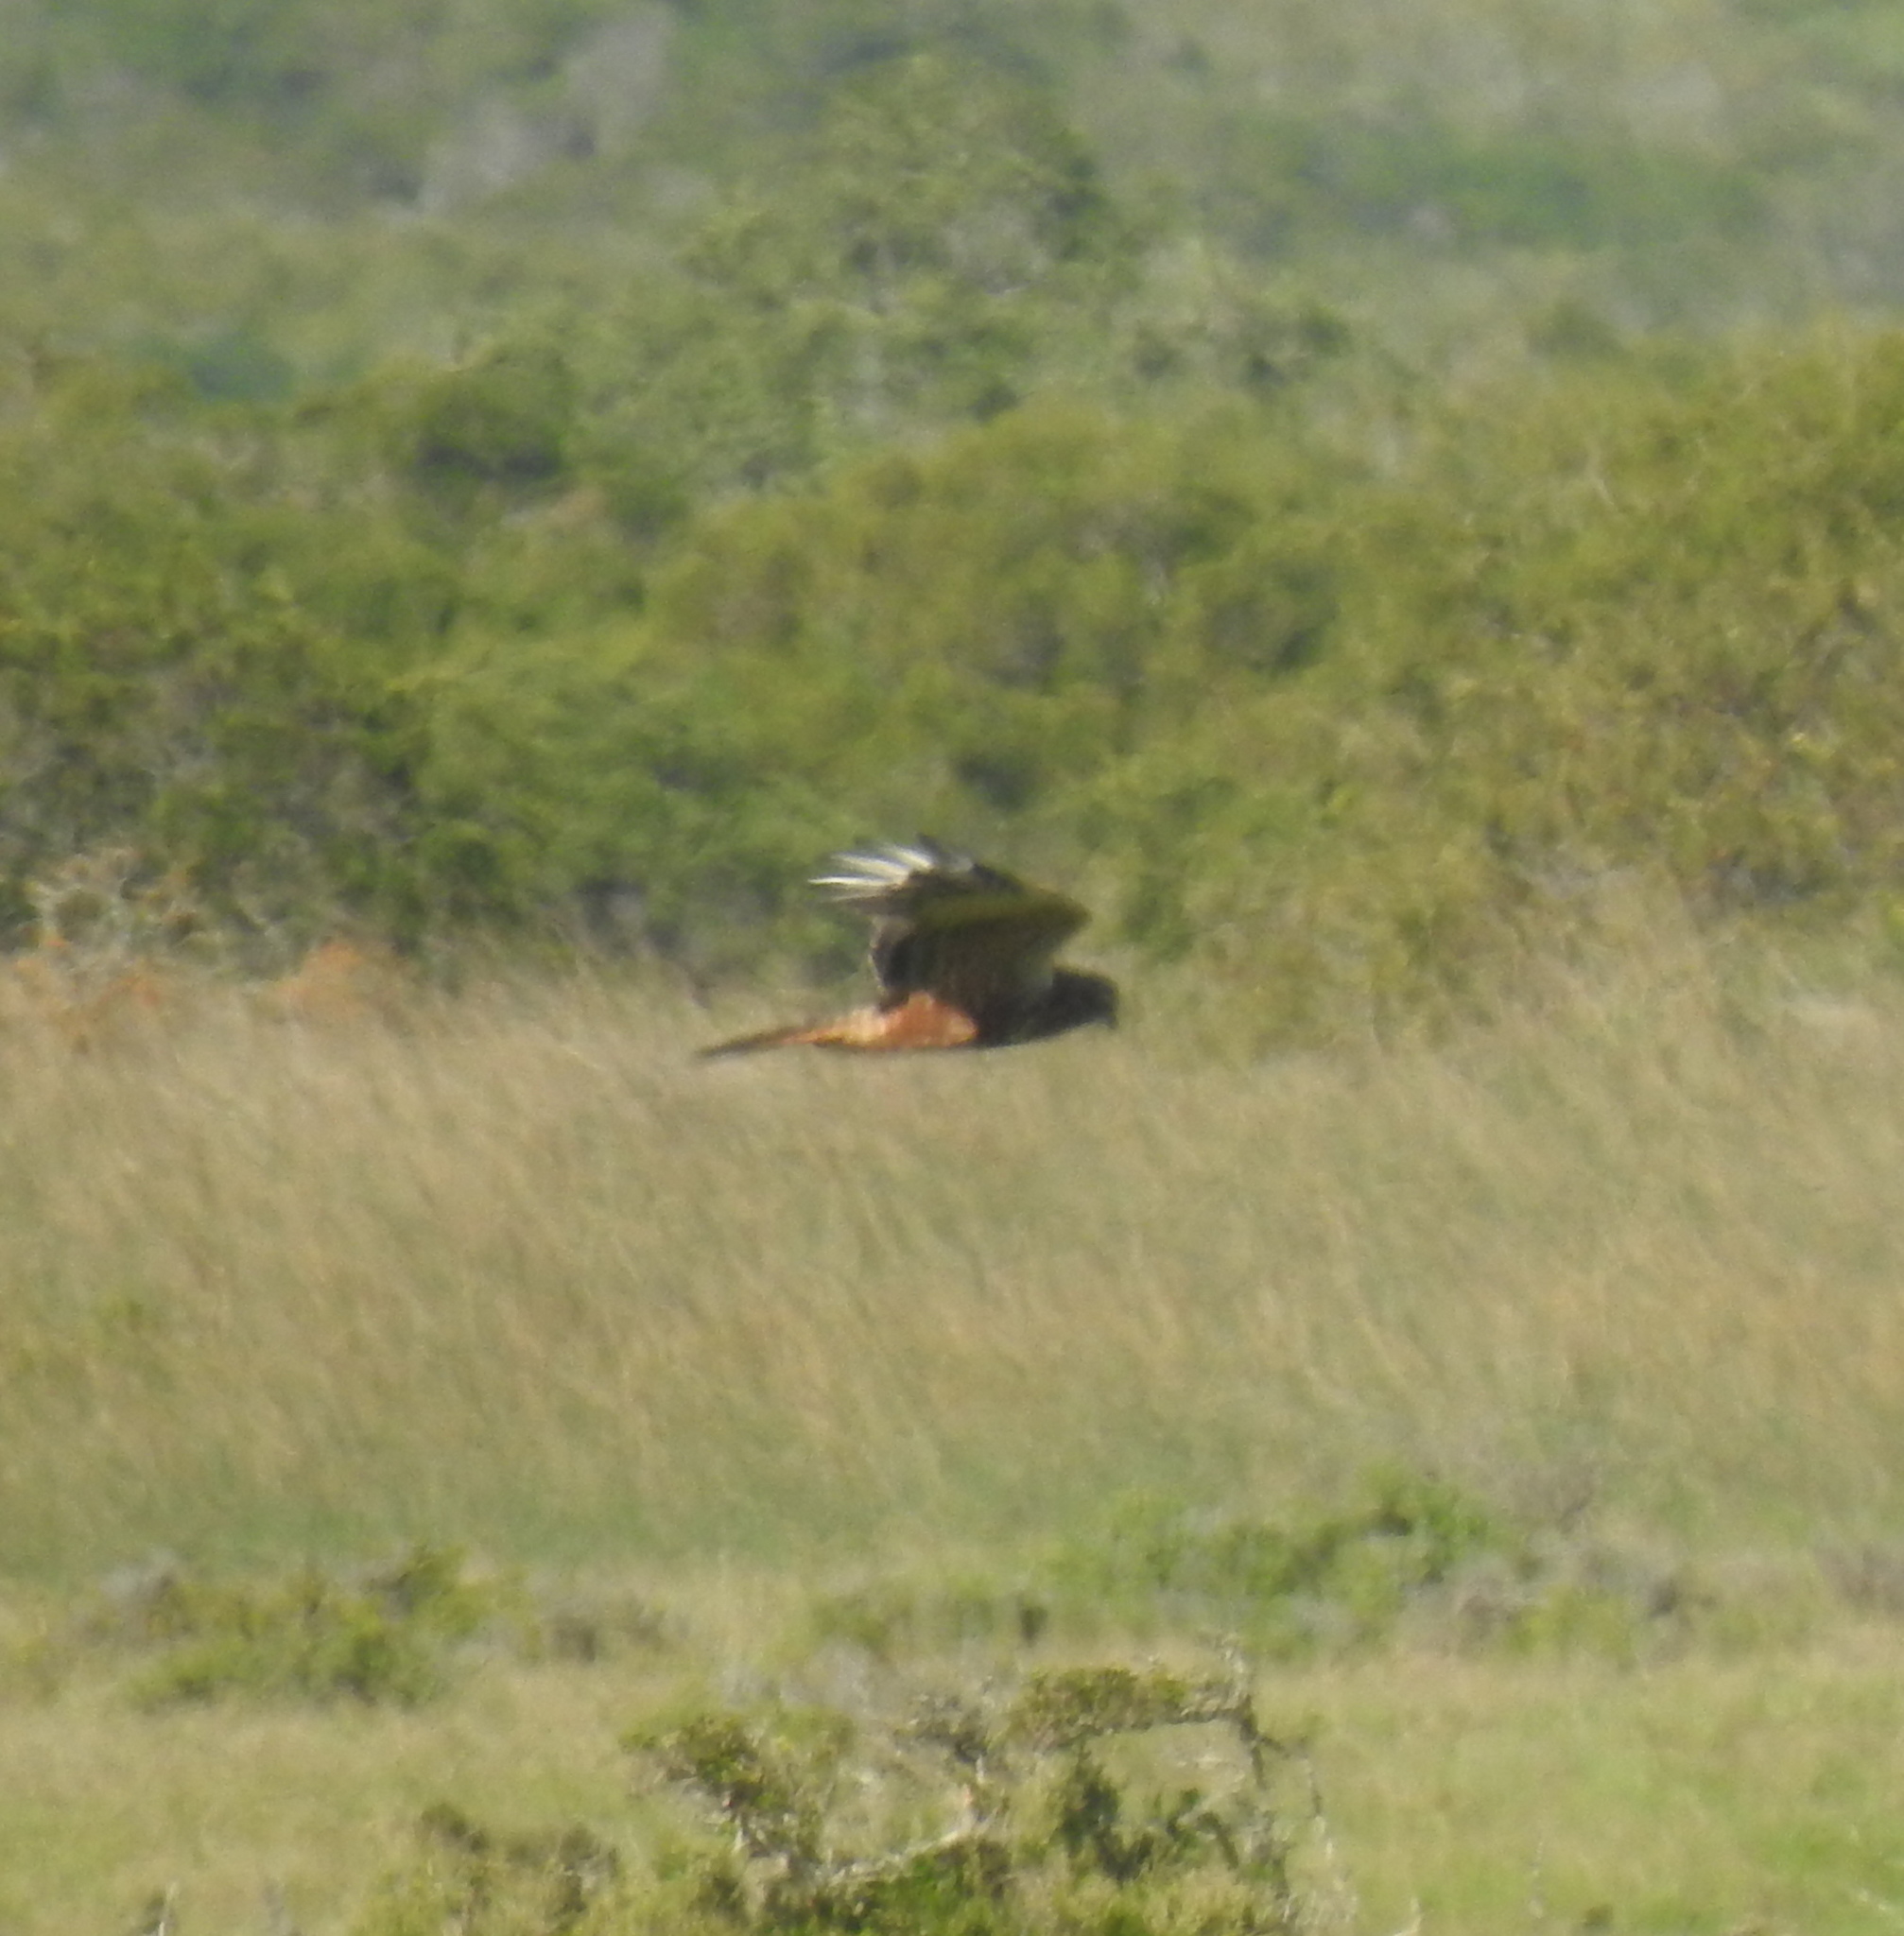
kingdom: Animalia
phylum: Chordata
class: Aves
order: Accipitriformes
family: Accipitridae
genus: Circus
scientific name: Circus ranivorus
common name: African marsh-harrier
